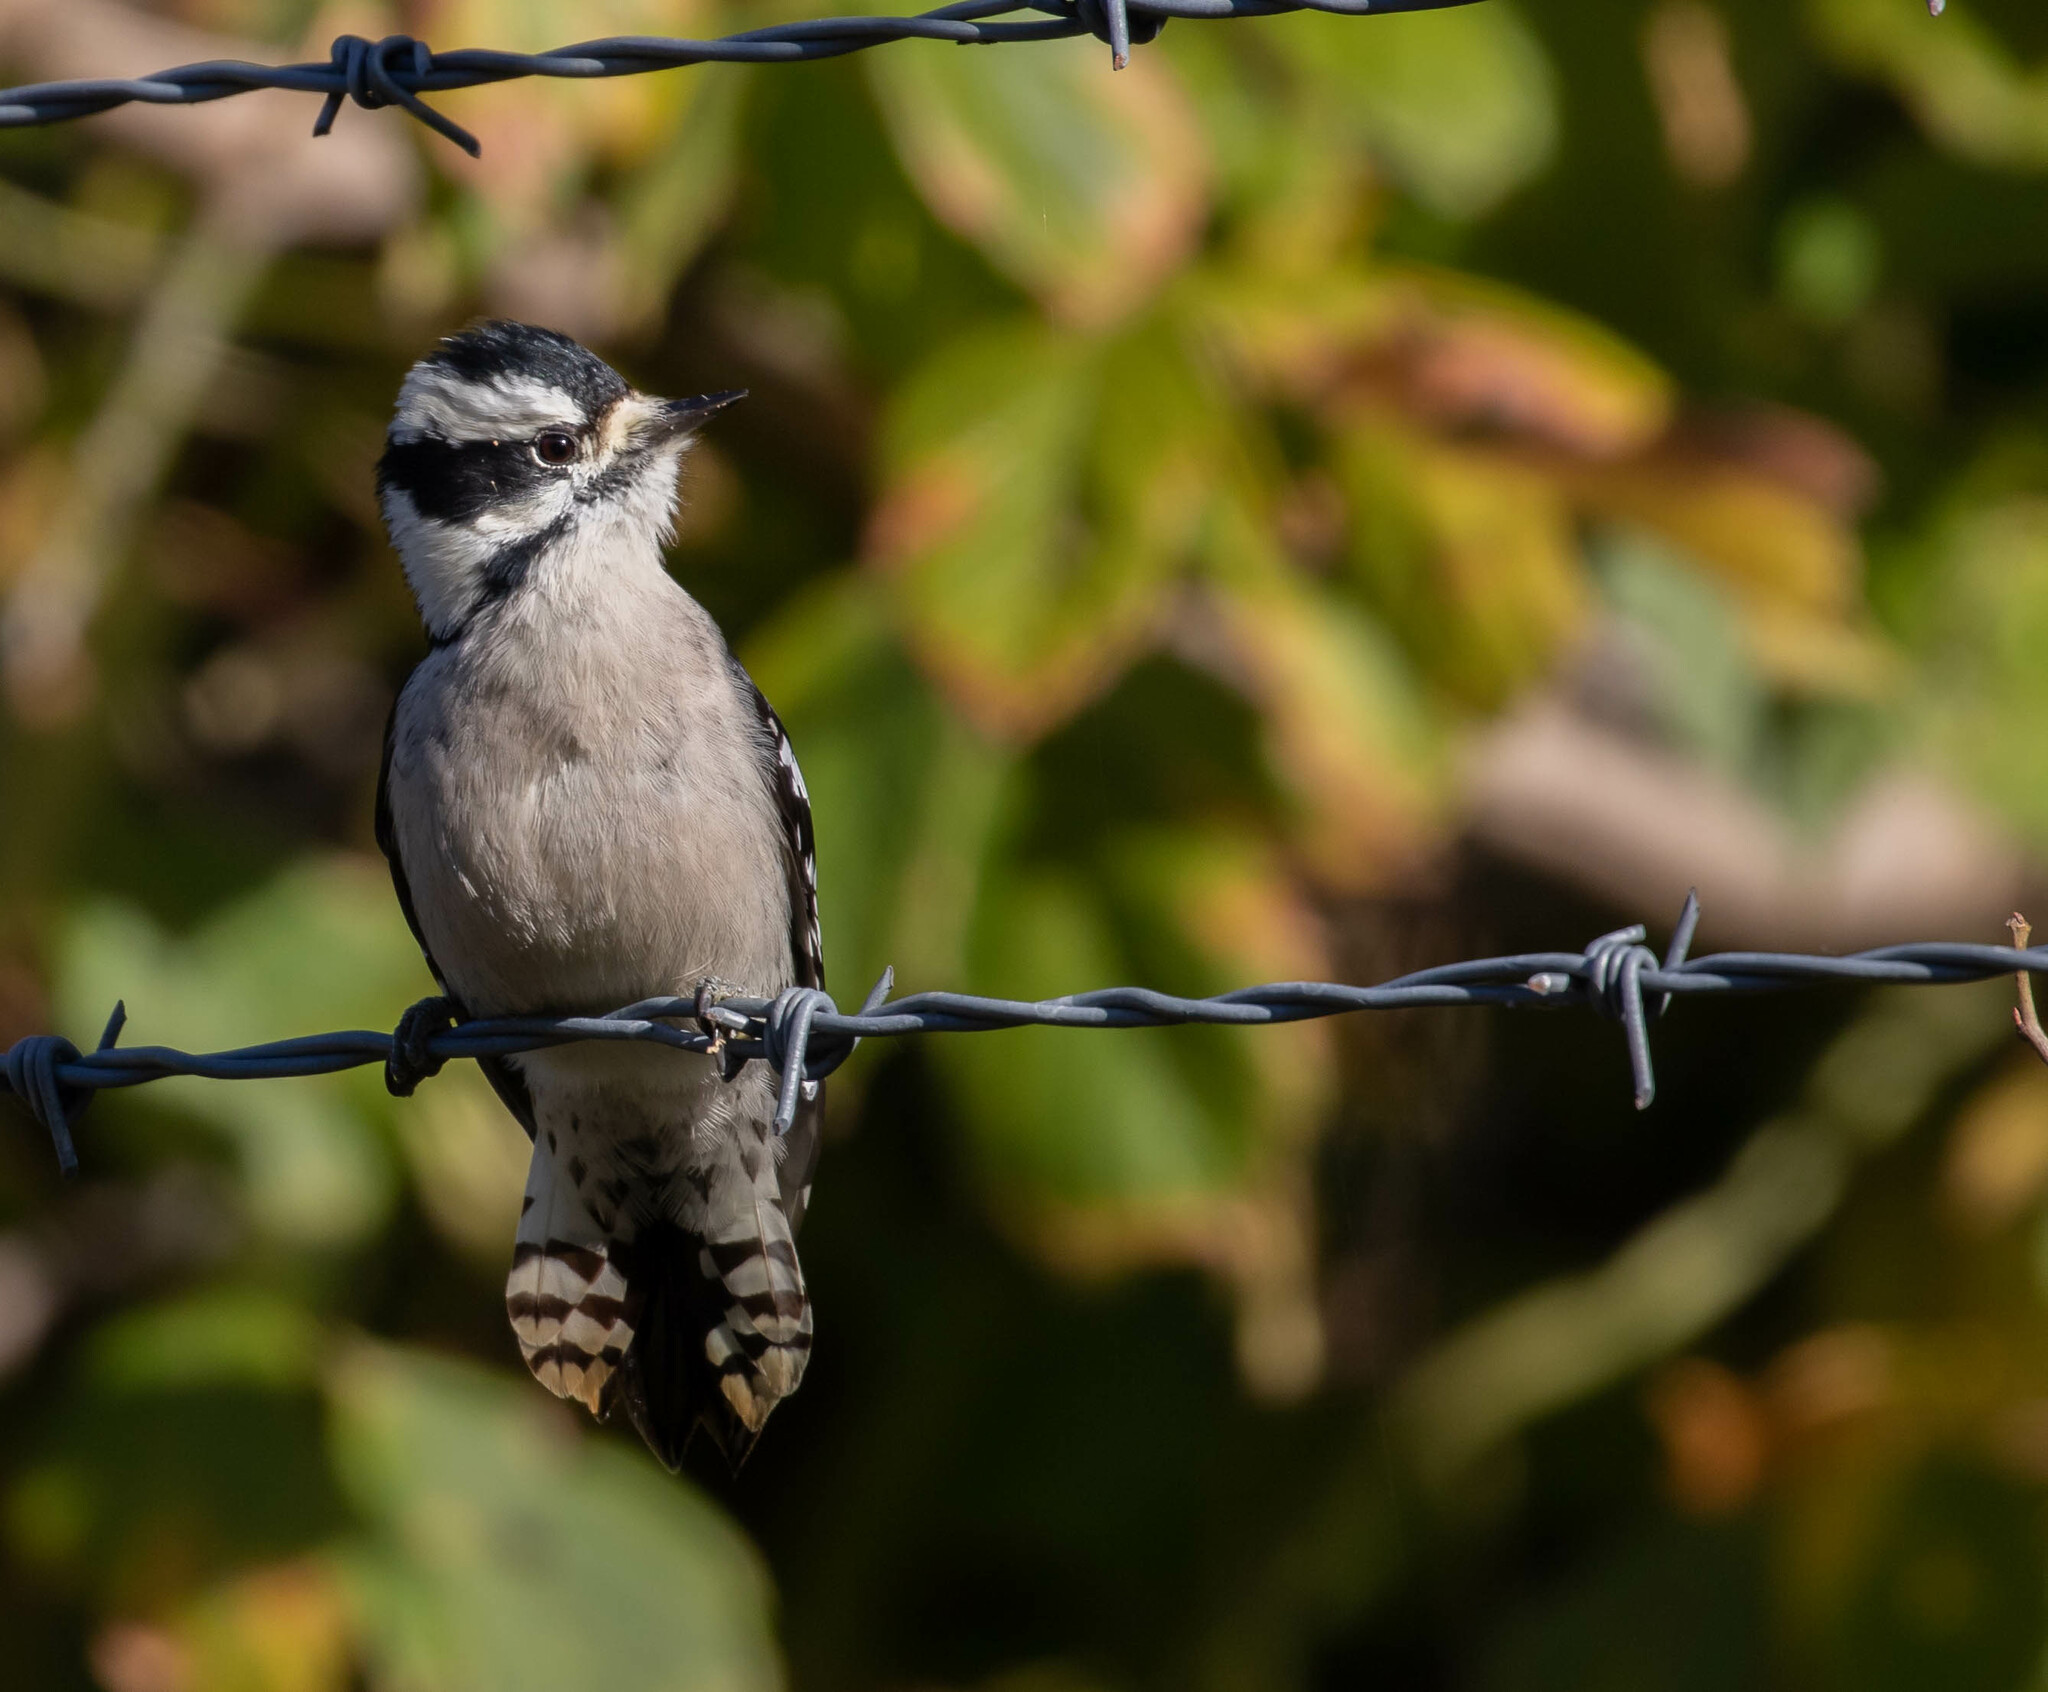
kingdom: Animalia
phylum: Chordata
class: Aves
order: Piciformes
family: Picidae
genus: Dryobates
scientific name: Dryobates pubescens
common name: Downy woodpecker
